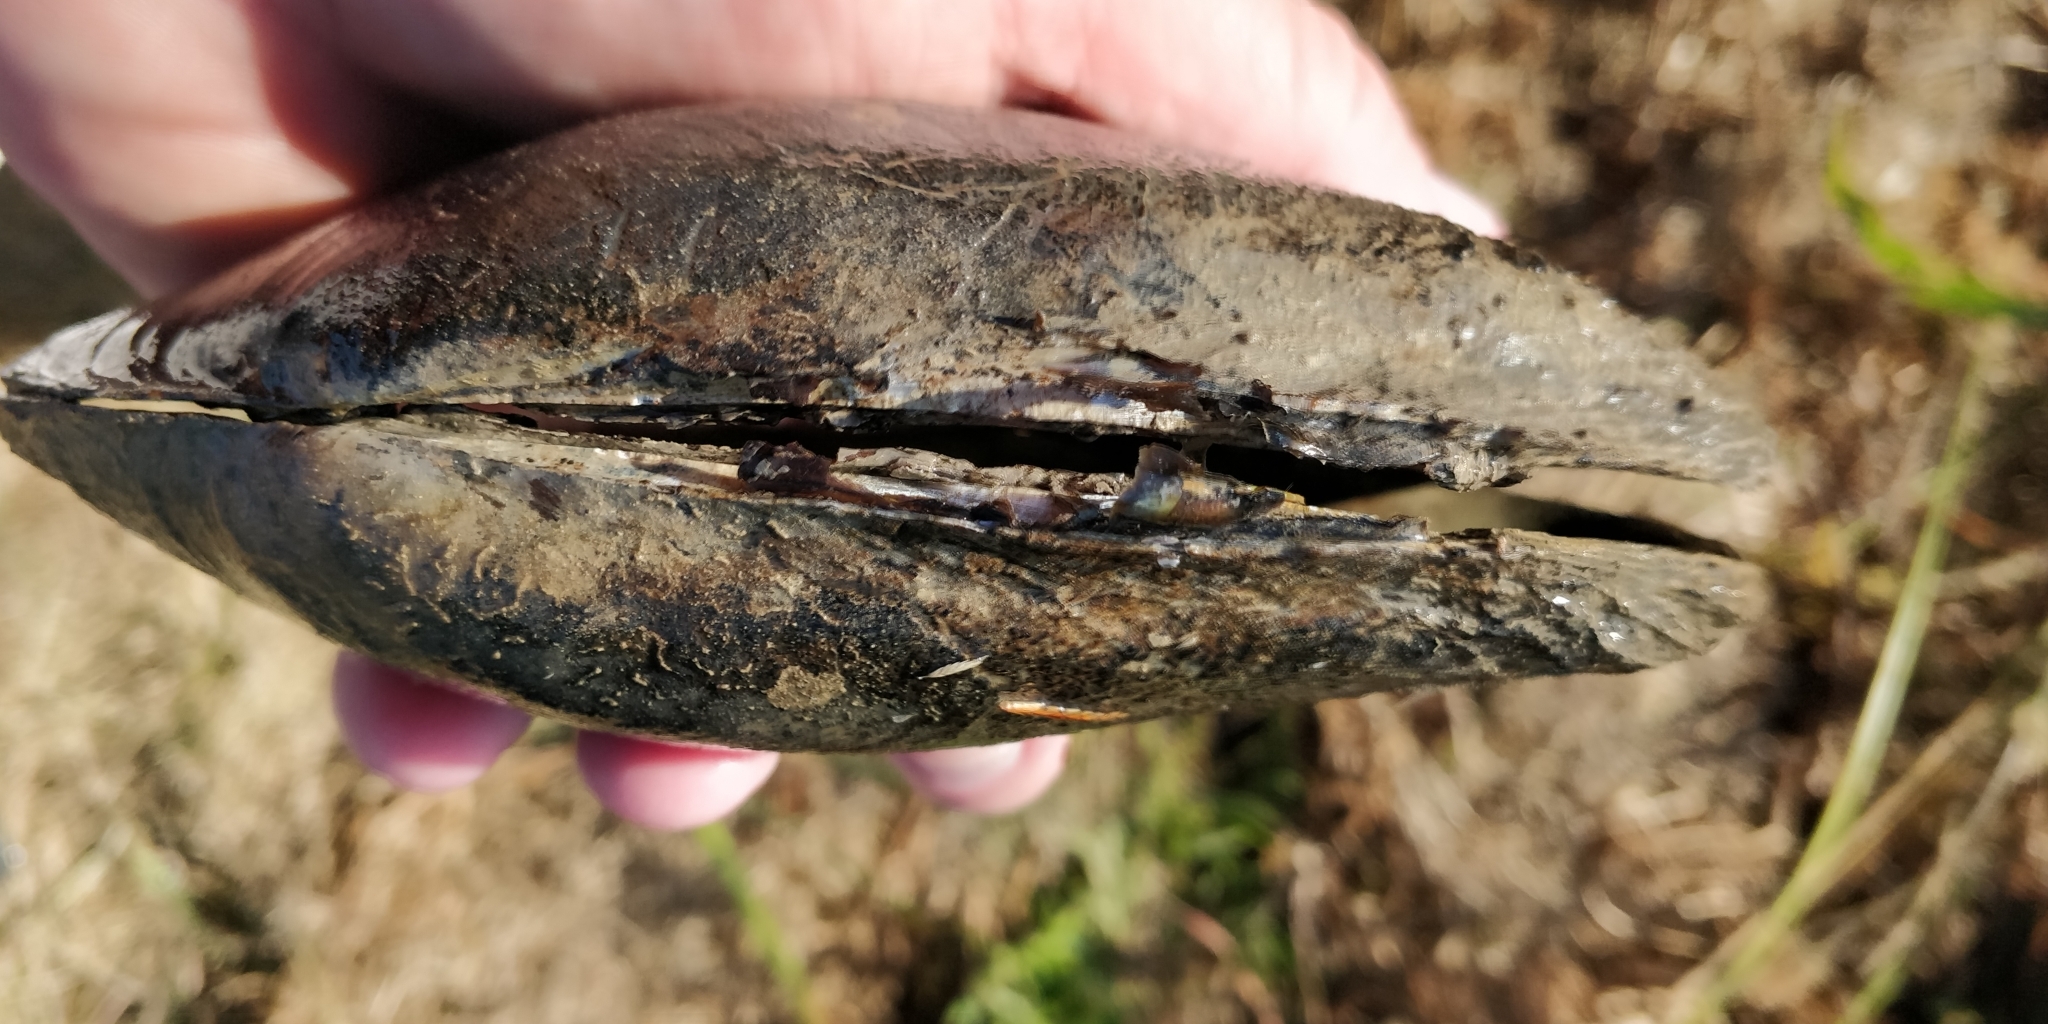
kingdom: Animalia
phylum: Mollusca
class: Bivalvia
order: Unionida
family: Unionidae
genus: Potamilus
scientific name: Potamilus fragilis
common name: Fragile papershell
